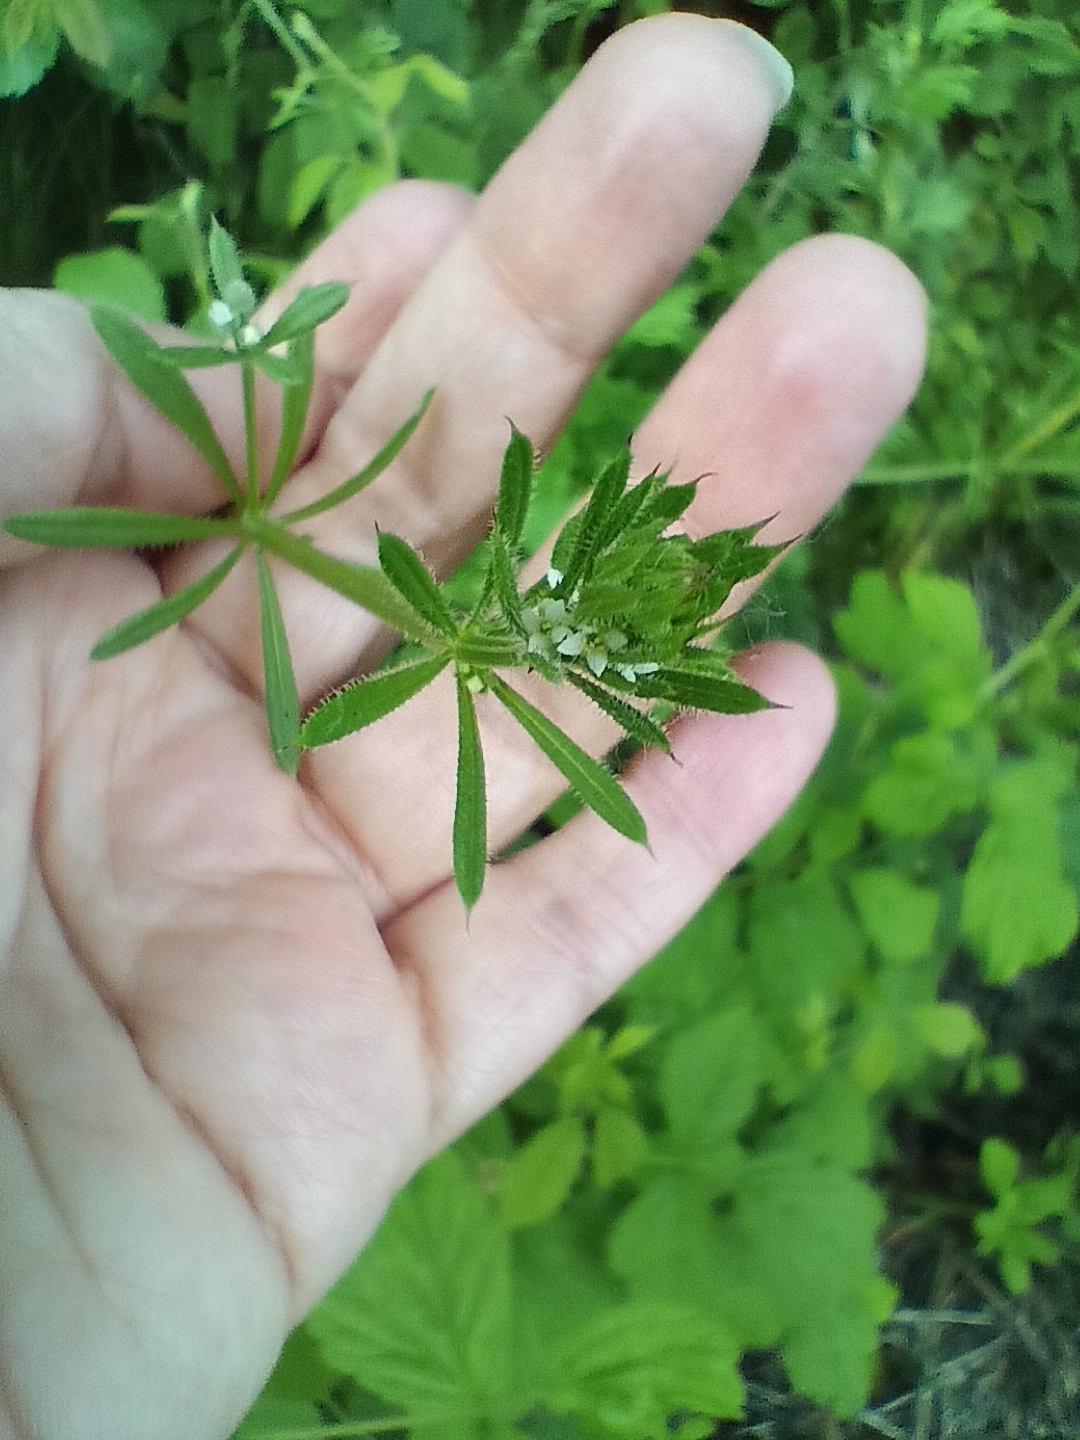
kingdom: Plantae
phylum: Tracheophyta
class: Magnoliopsida
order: Gentianales
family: Rubiaceae
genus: Galium
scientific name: Galium aparine
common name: Cleavers
